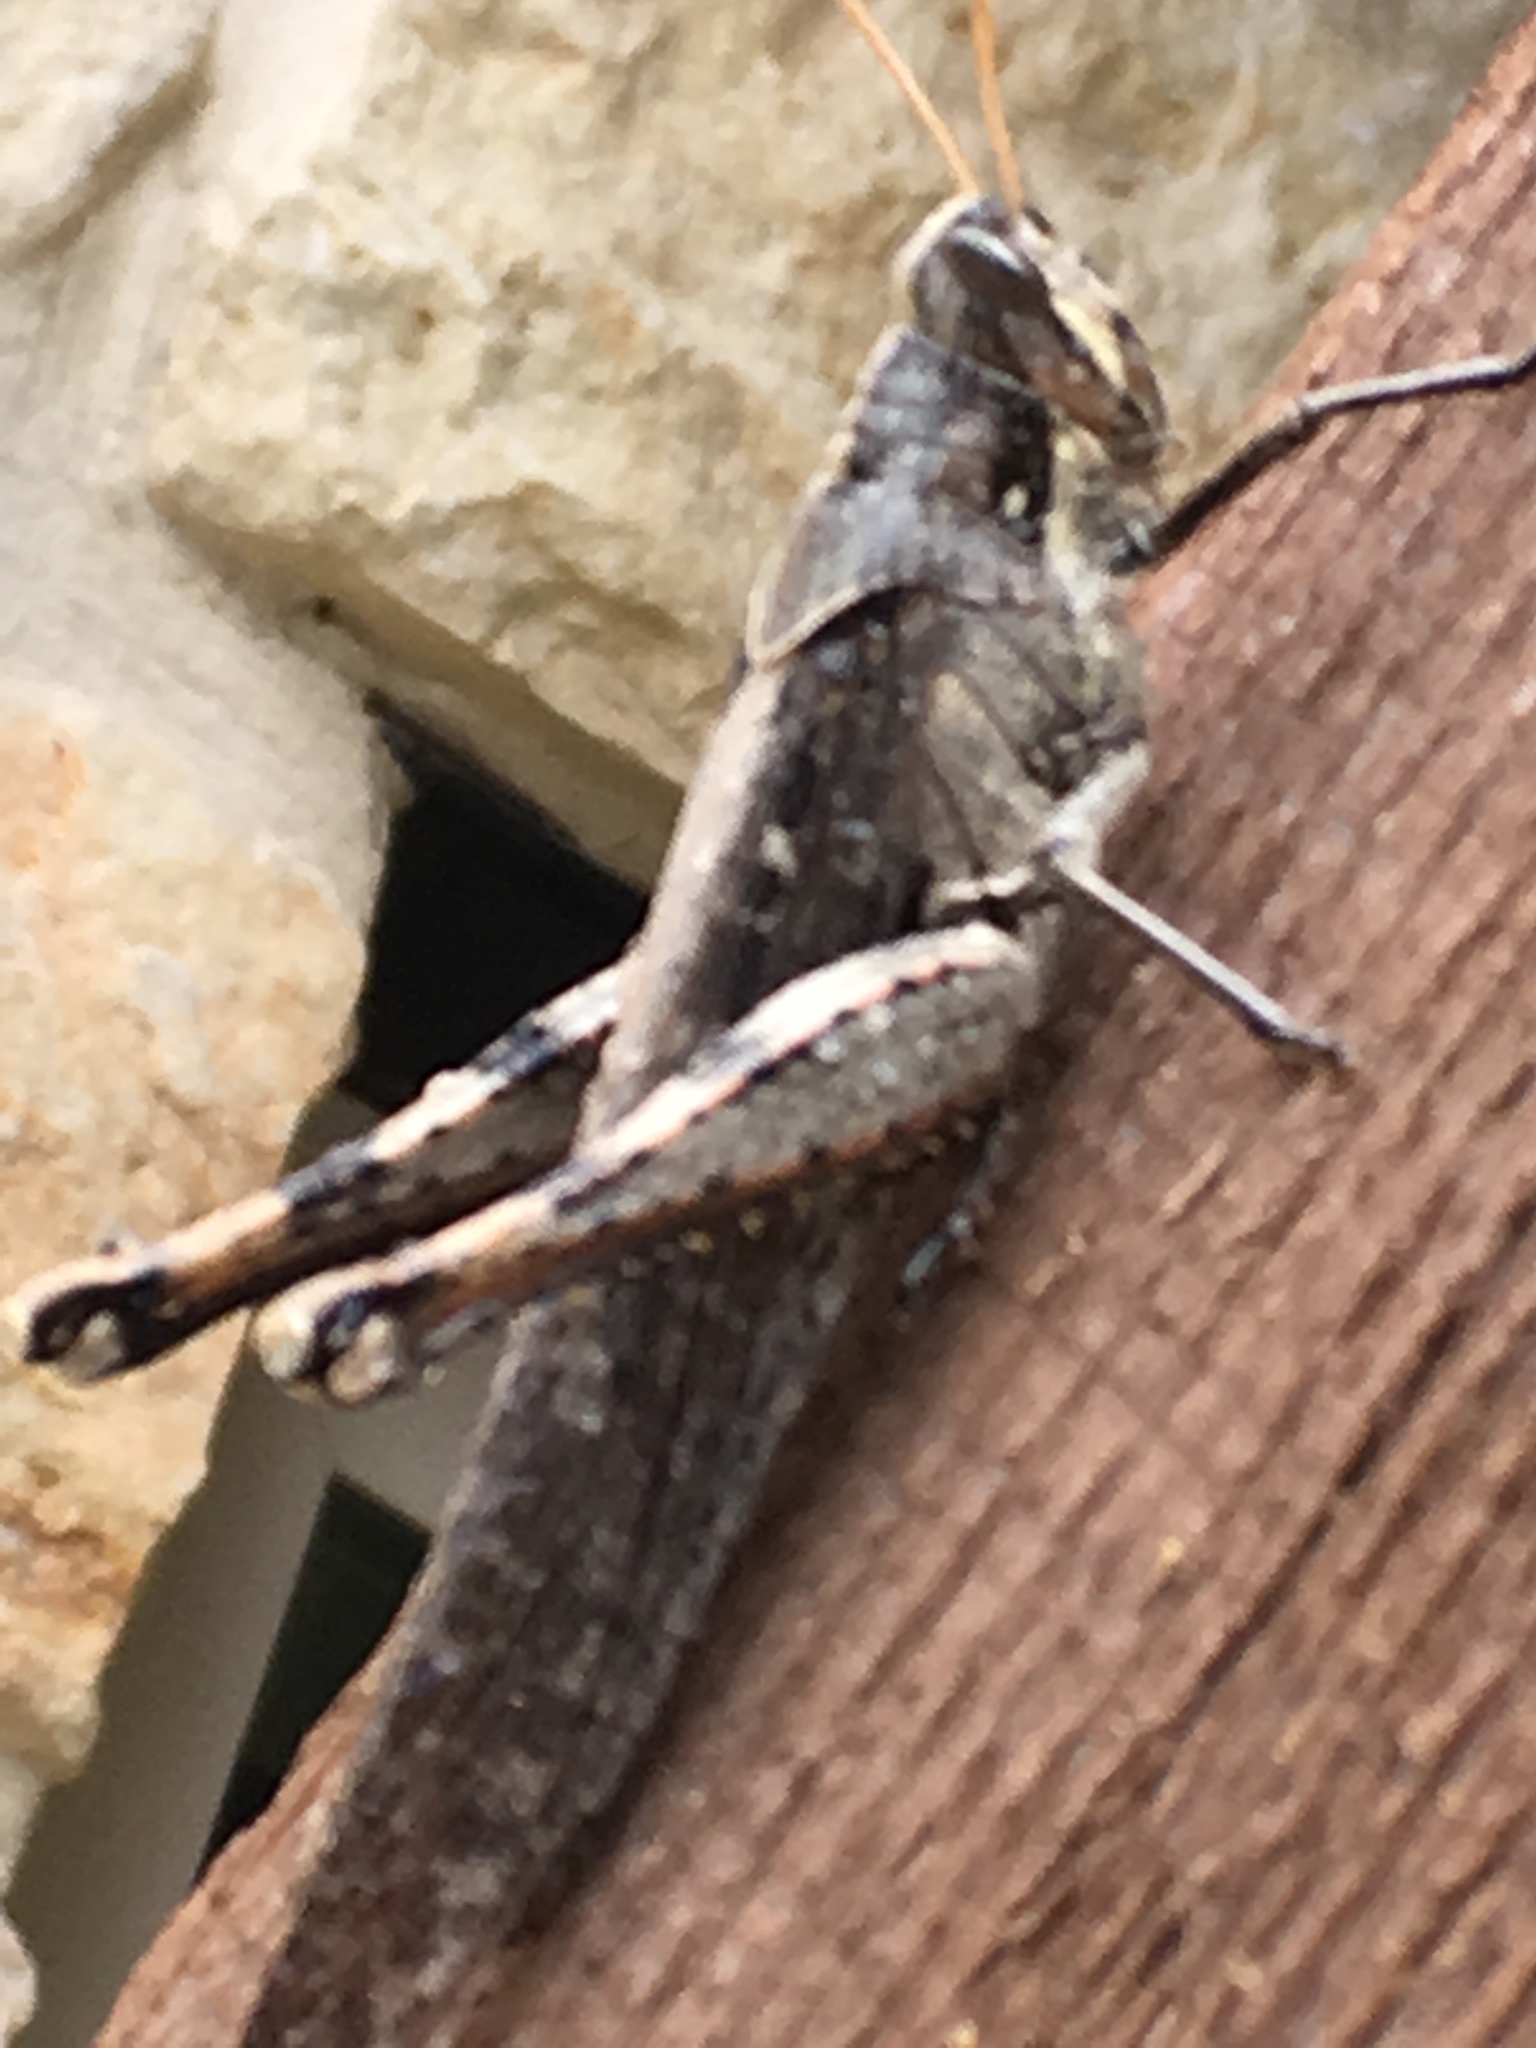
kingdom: Animalia
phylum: Arthropoda
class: Insecta
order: Orthoptera
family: Acrididae
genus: Schistocerca
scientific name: Schistocerca nitens
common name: Vagrant grasshopper
